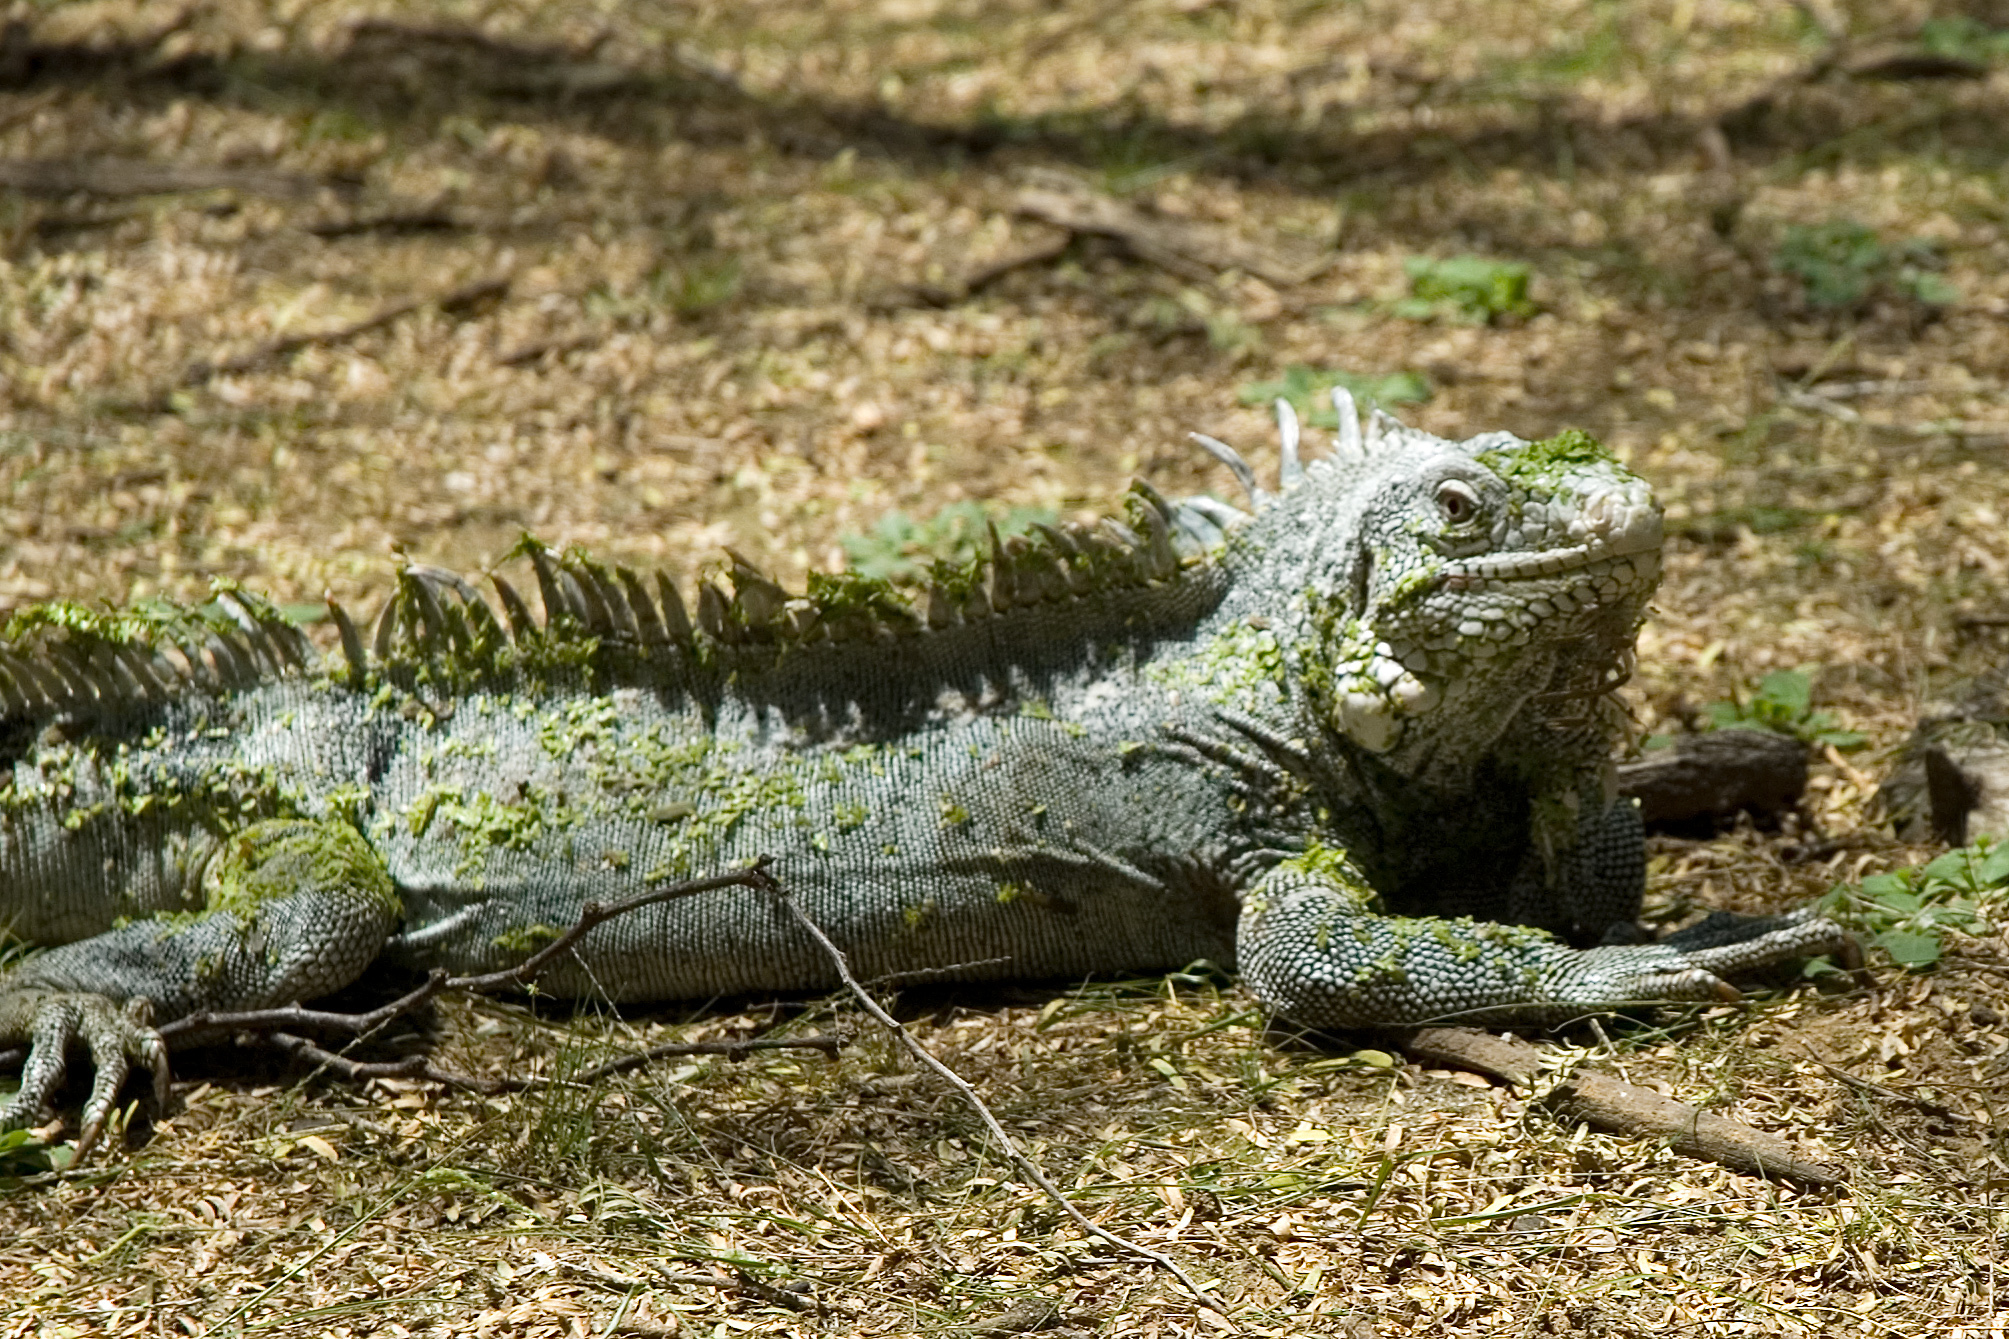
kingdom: Animalia
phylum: Chordata
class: Squamata
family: Iguanidae
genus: Iguana
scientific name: Iguana iguana
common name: Green iguana
